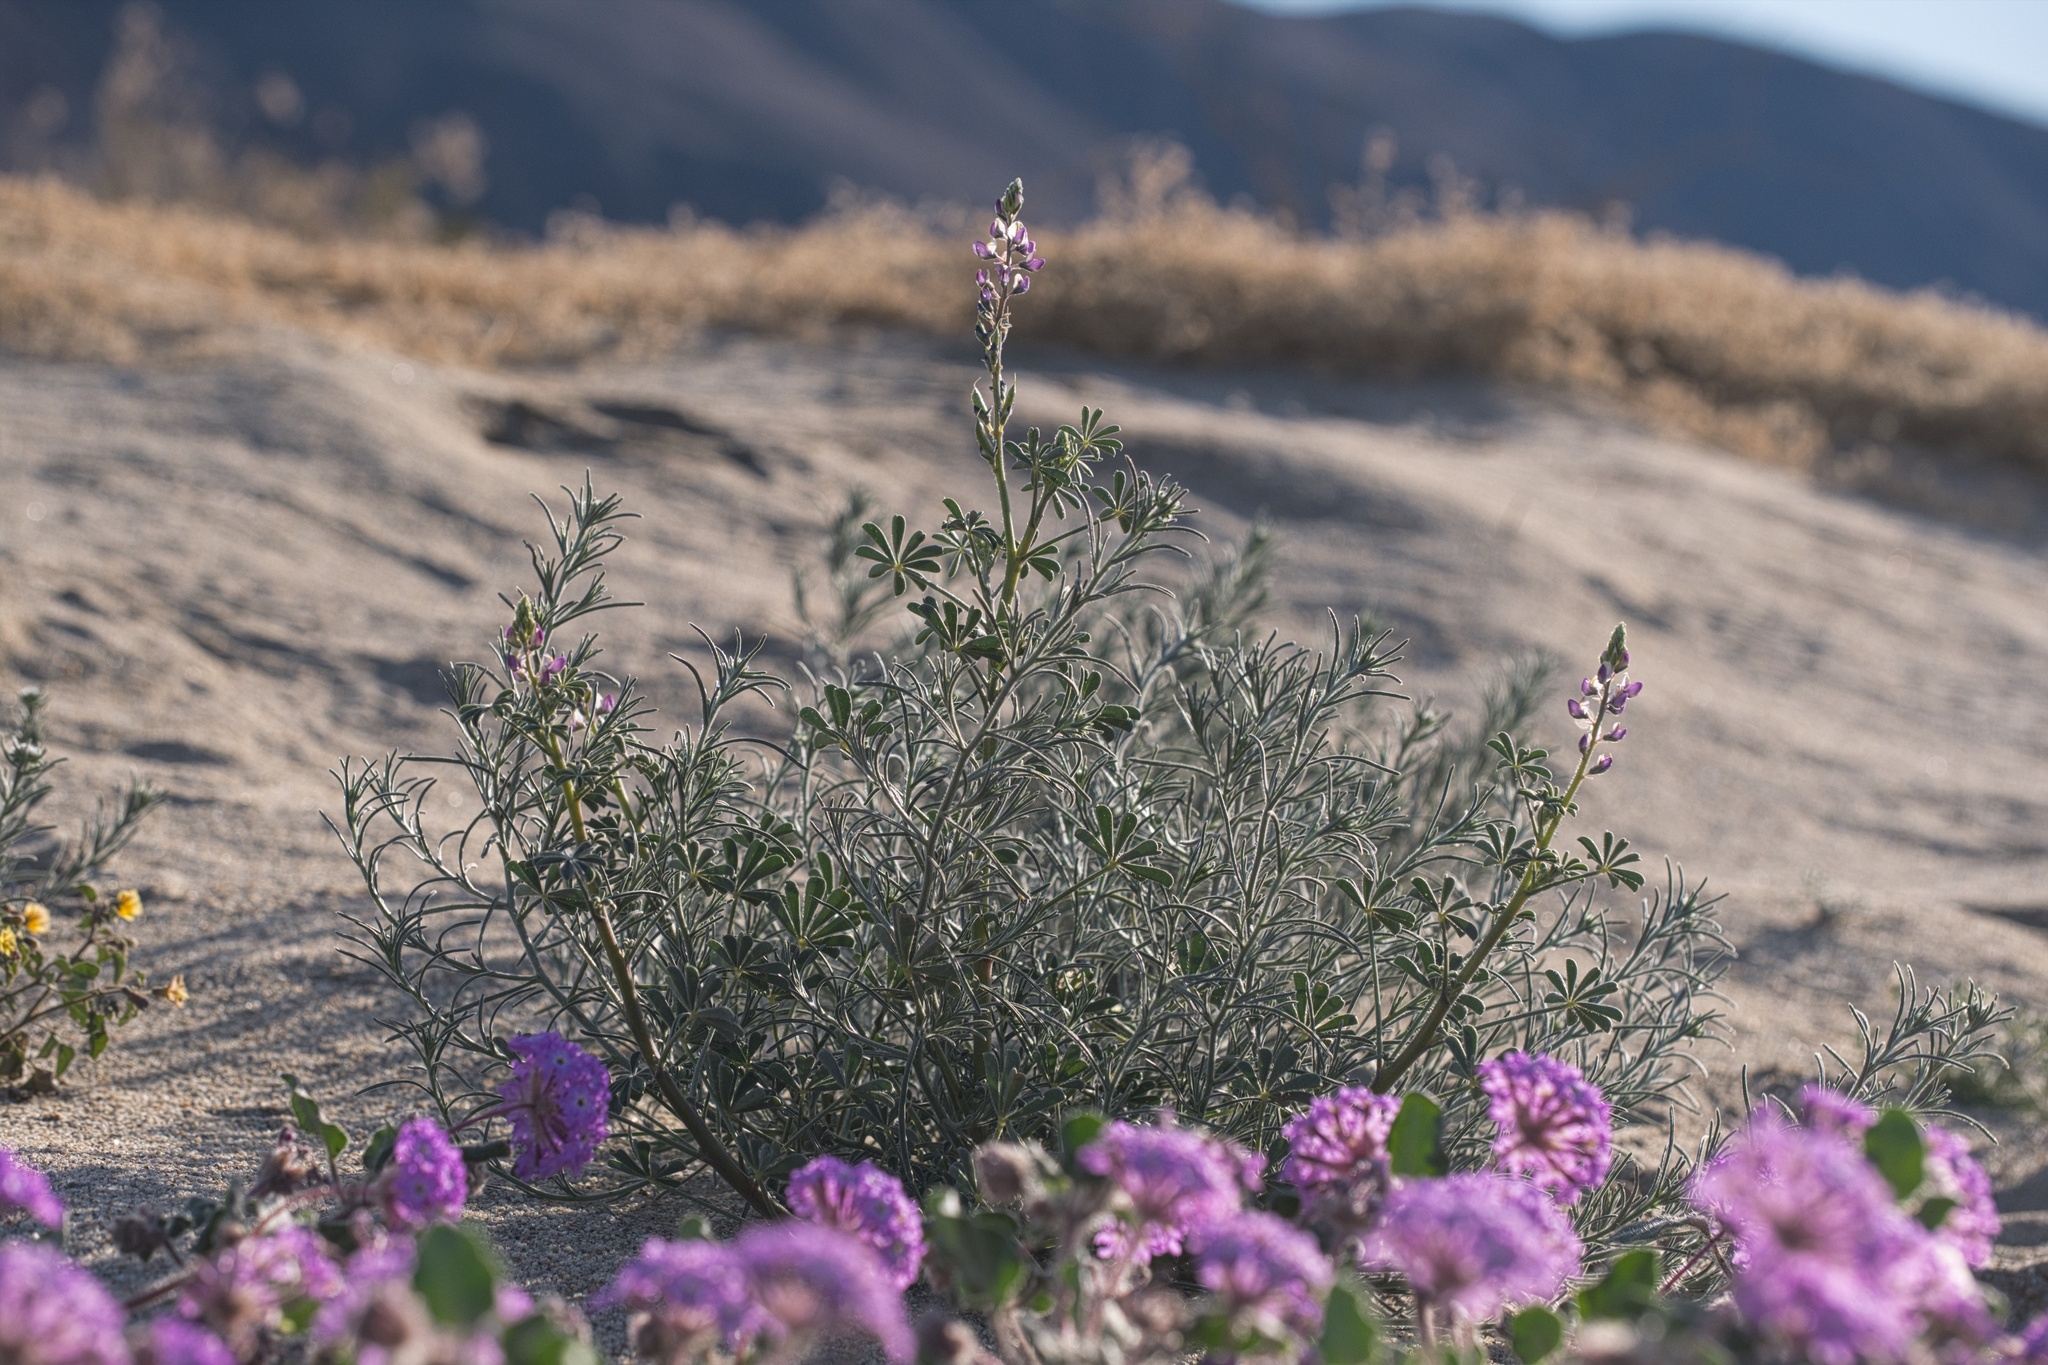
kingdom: Plantae
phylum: Tracheophyta
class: Magnoliopsida
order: Fabales
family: Fabaceae
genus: Lupinus
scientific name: Lupinus arizonicus
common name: Arizona lupine
